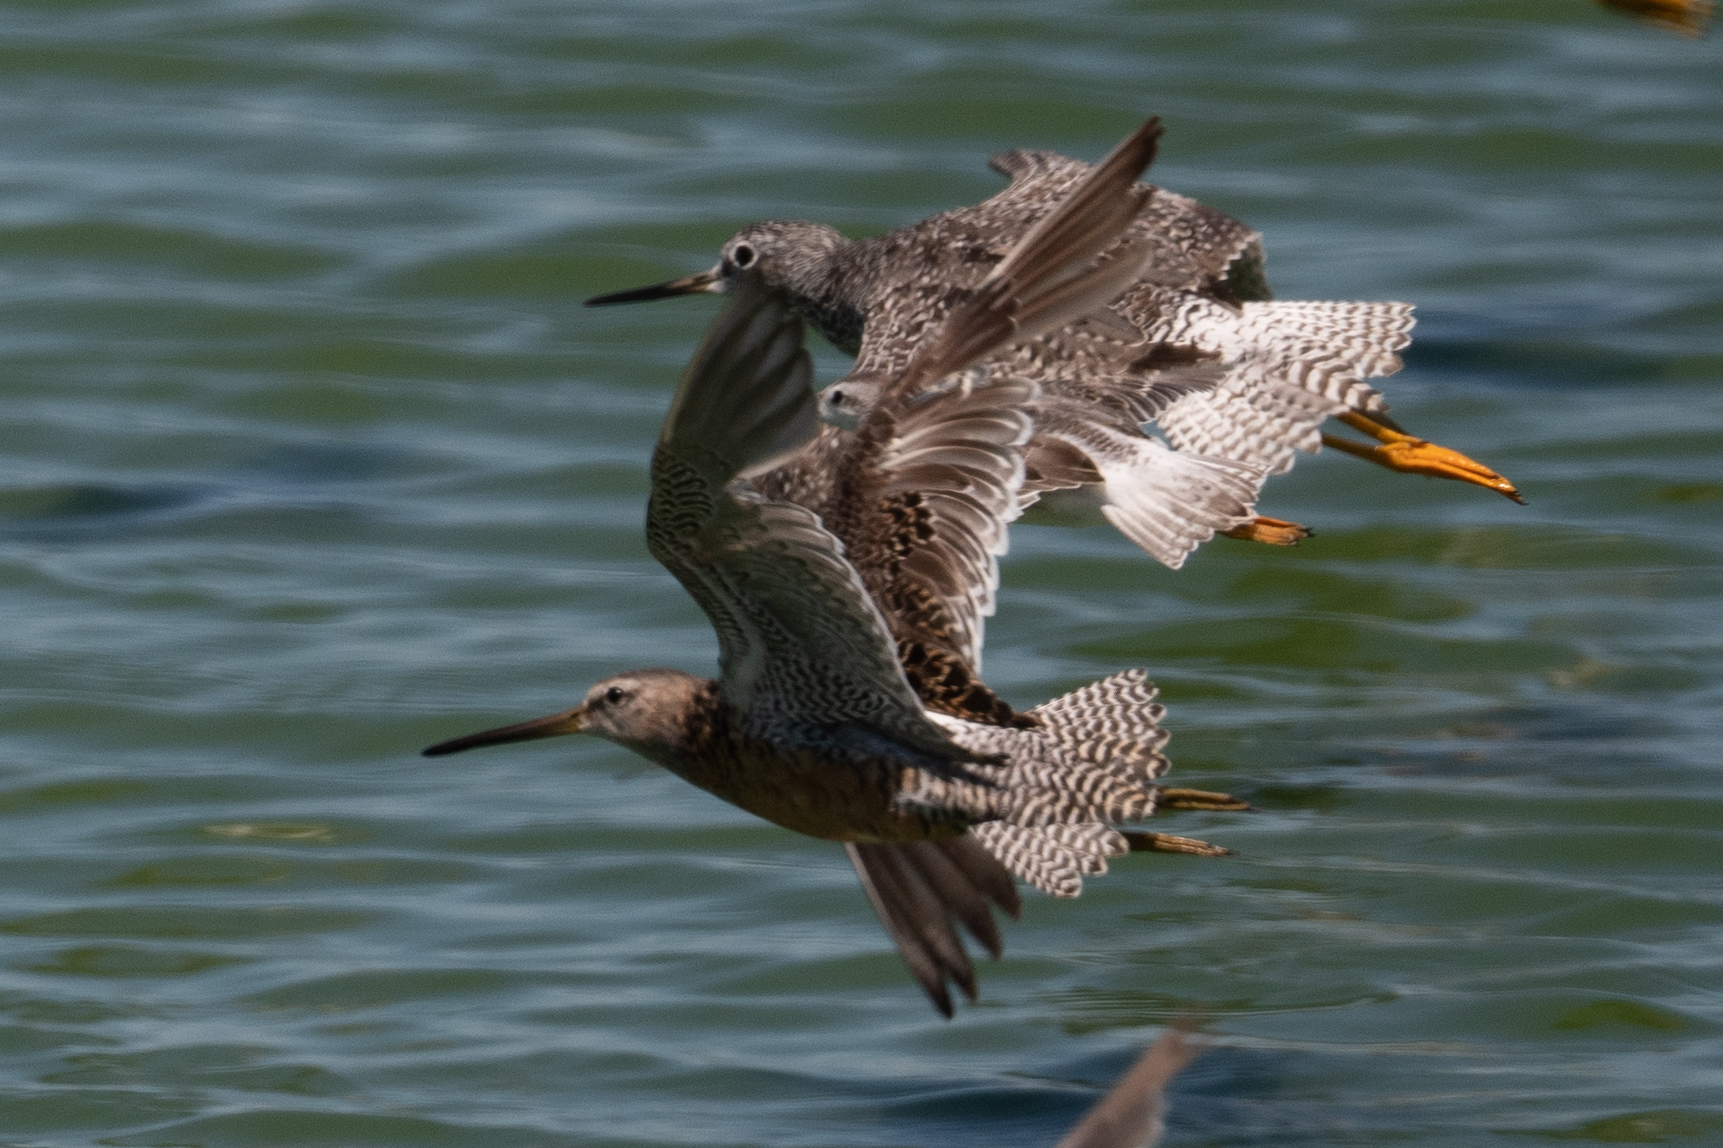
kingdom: Animalia
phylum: Chordata
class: Aves
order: Charadriiformes
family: Scolopacidae
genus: Tringa
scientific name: Tringa melanoleuca
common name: Greater yellowlegs
